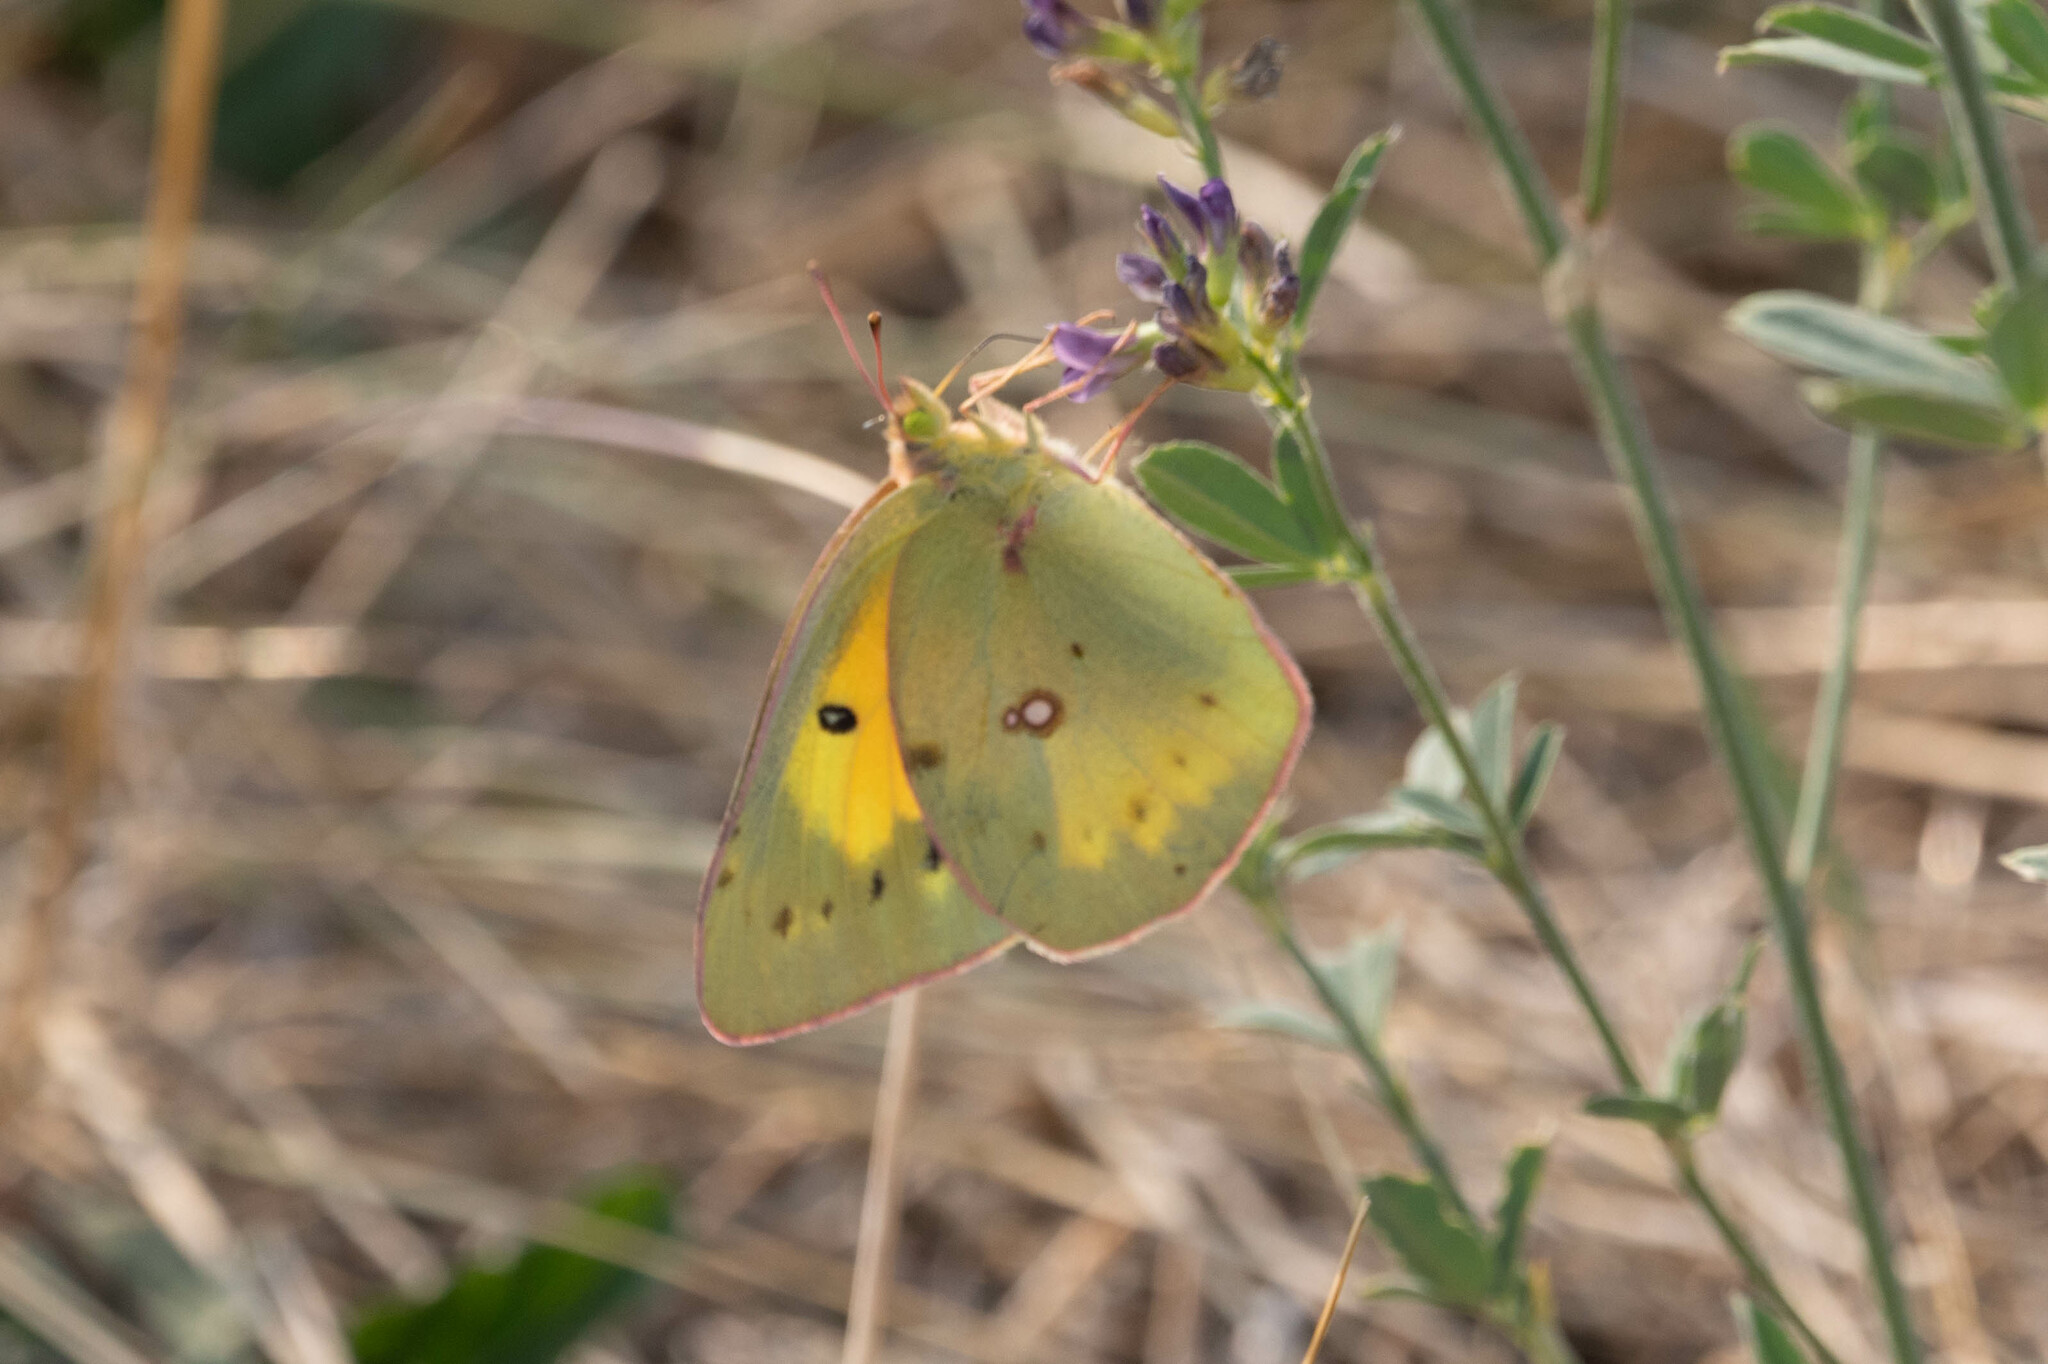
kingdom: Animalia
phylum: Arthropoda
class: Insecta
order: Lepidoptera
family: Pieridae
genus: Colias
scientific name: Colias eurytheme
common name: Alfalfa butterfly
